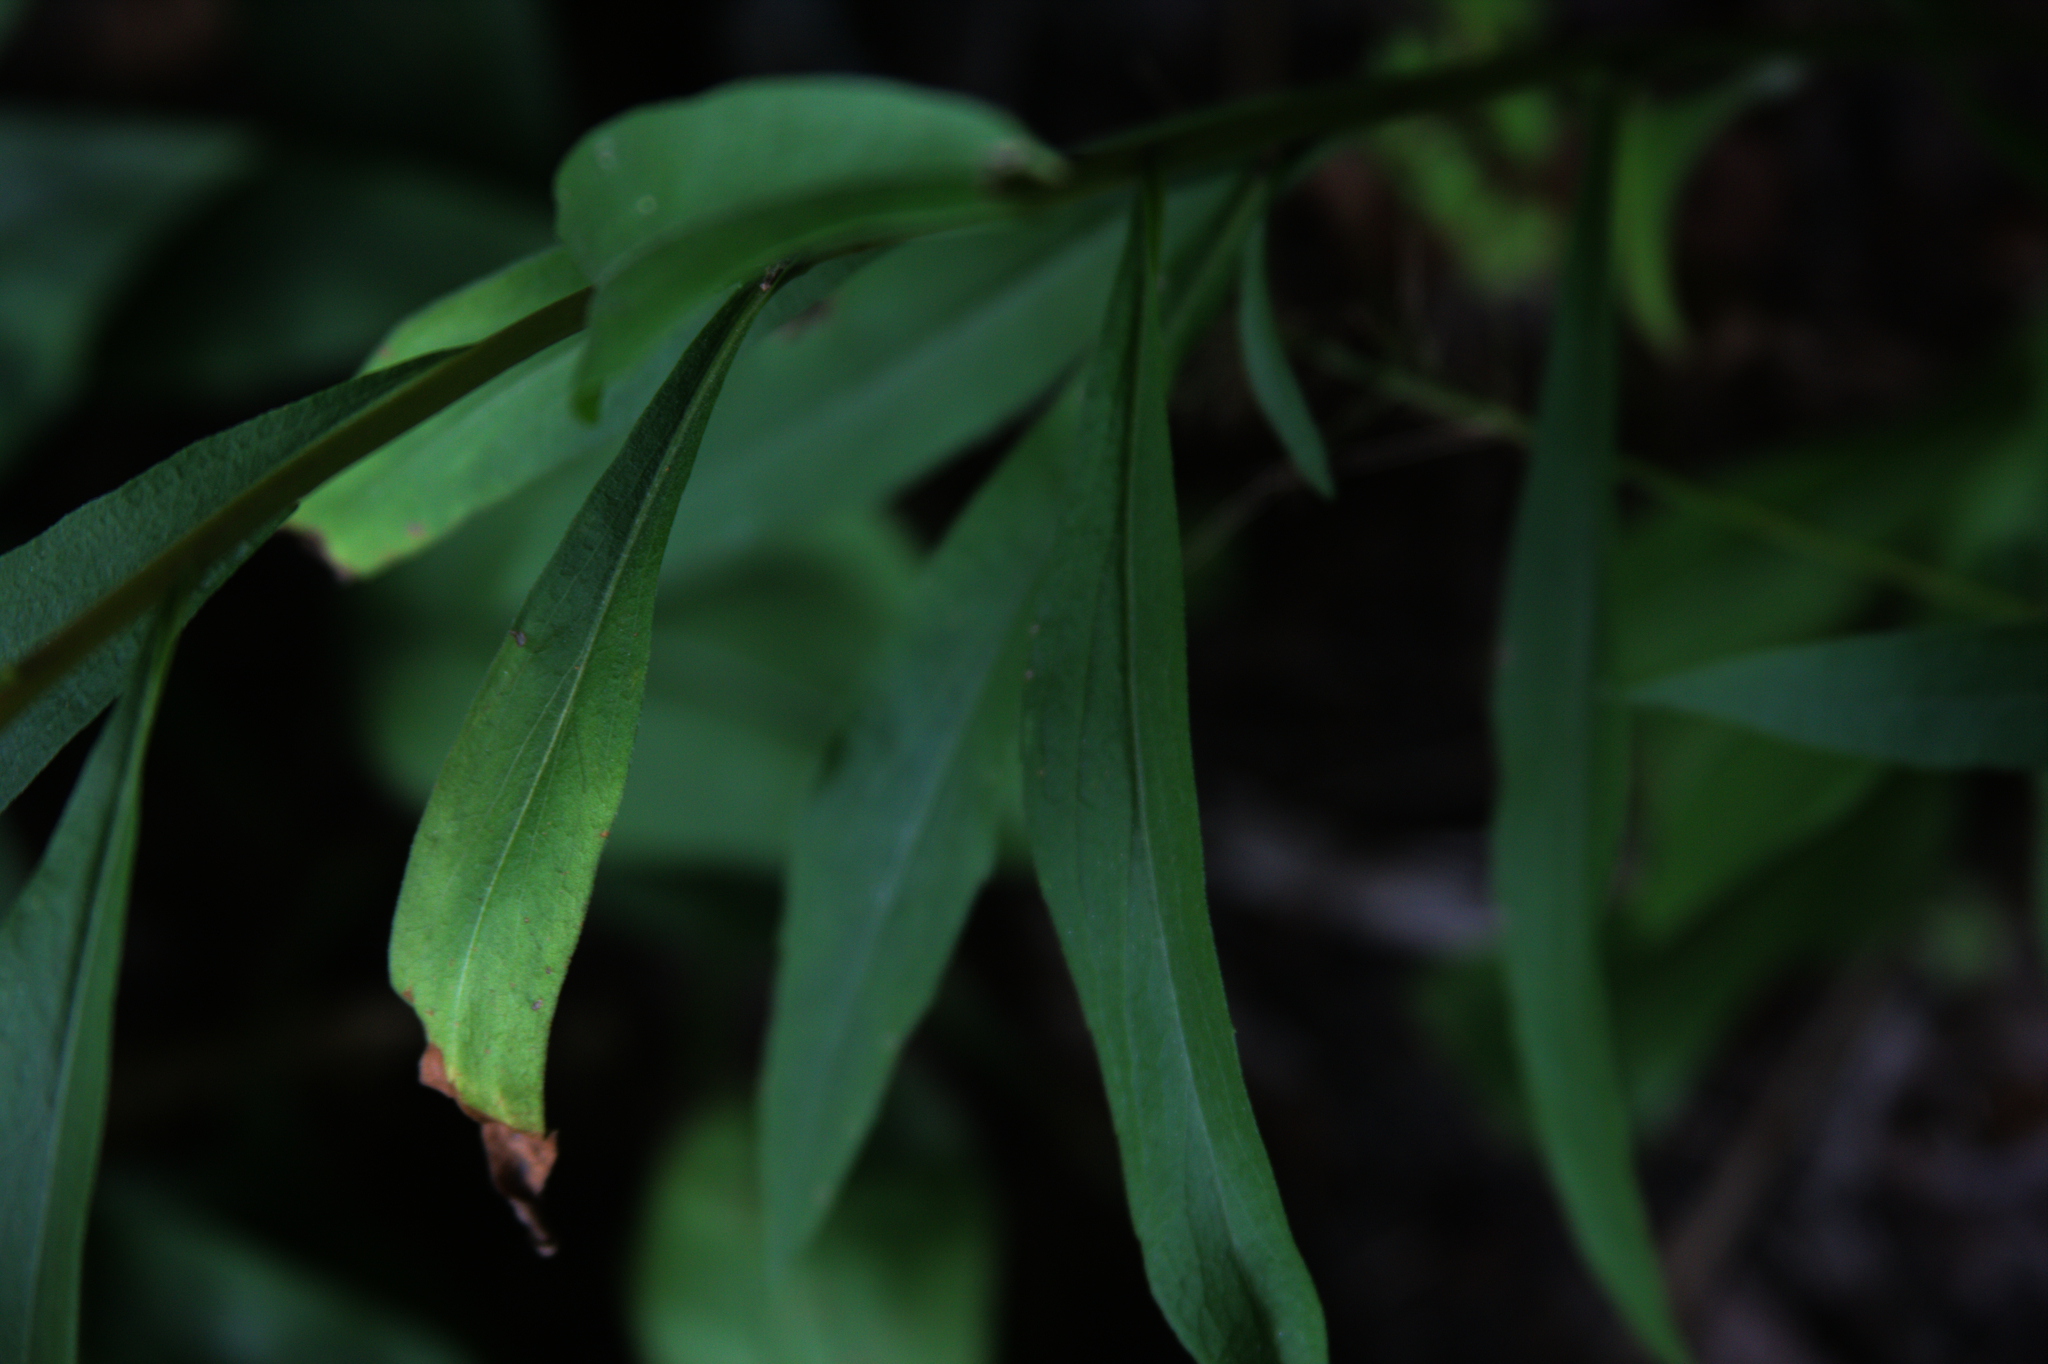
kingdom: Plantae
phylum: Tracheophyta
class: Magnoliopsida
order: Asterales
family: Asteraceae
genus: Solidago
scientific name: Solidago juncea
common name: Early goldenrod
